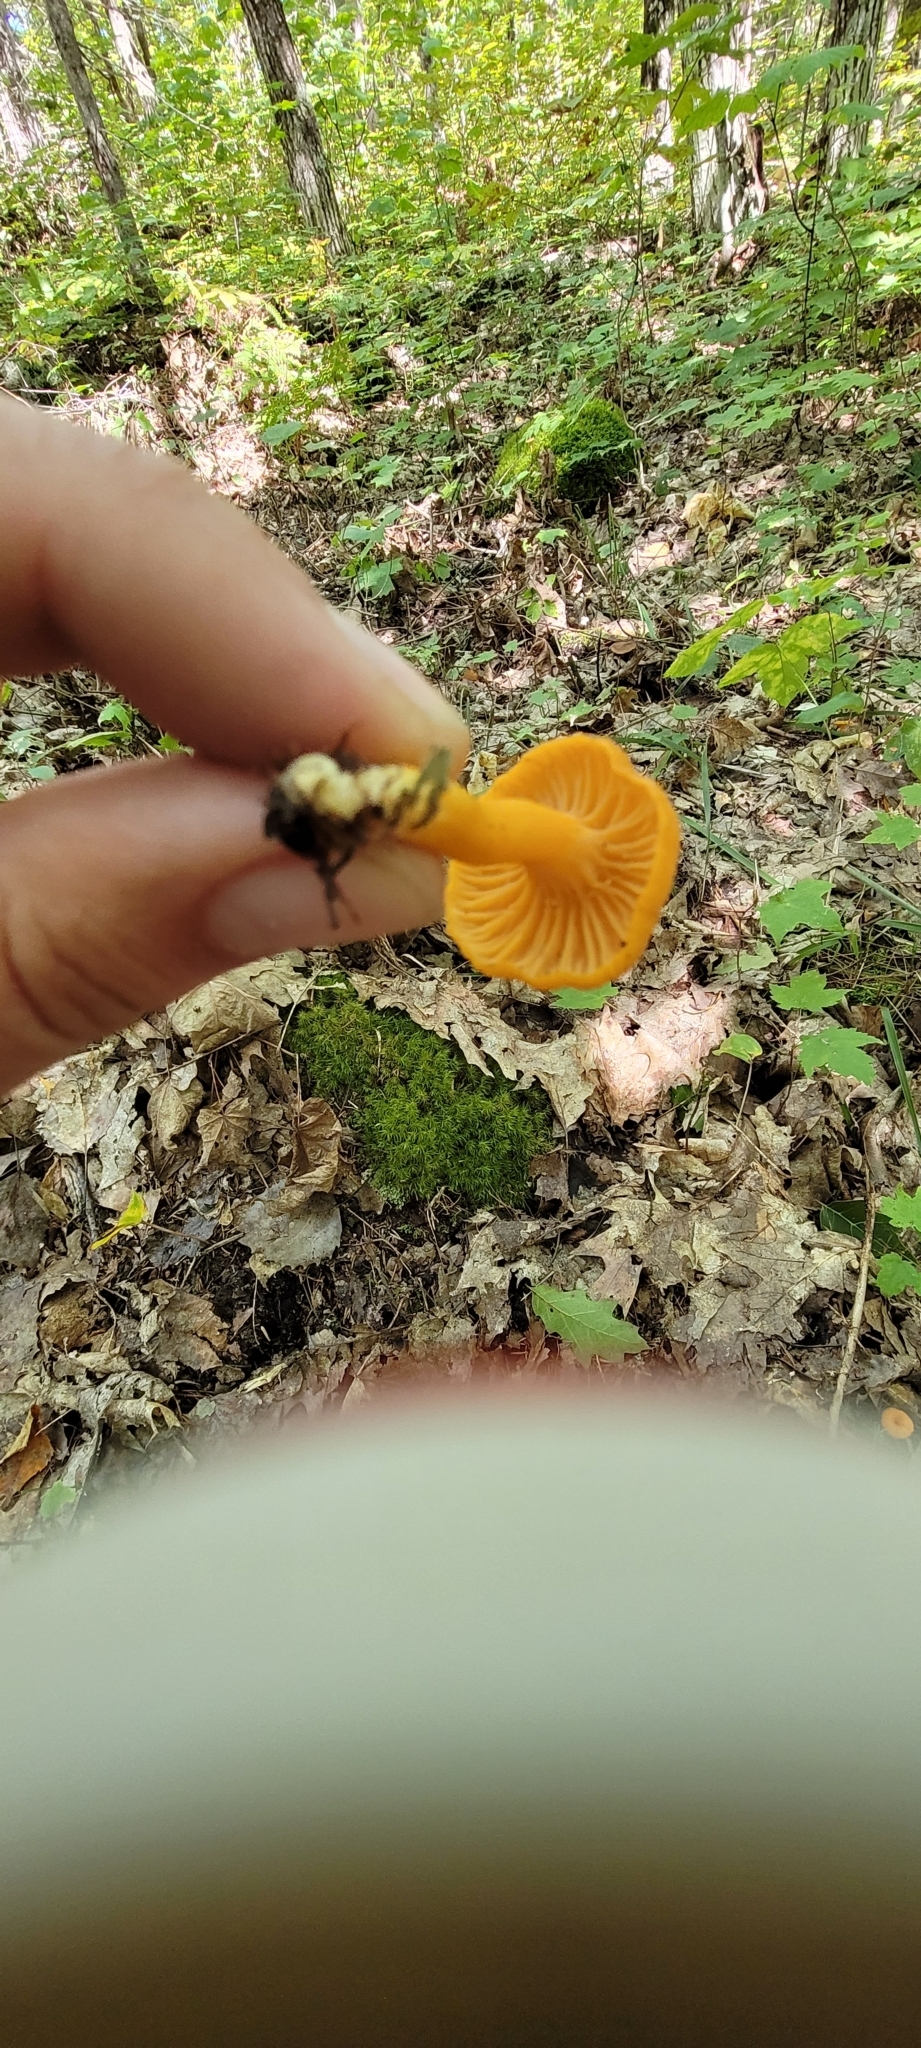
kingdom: Fungi
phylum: Basidiomycota
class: Agaricomycetes
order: Cantharellales
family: Hydnaceae
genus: Craterellus
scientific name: Craterellus ignicolor
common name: Flame chanterelle
